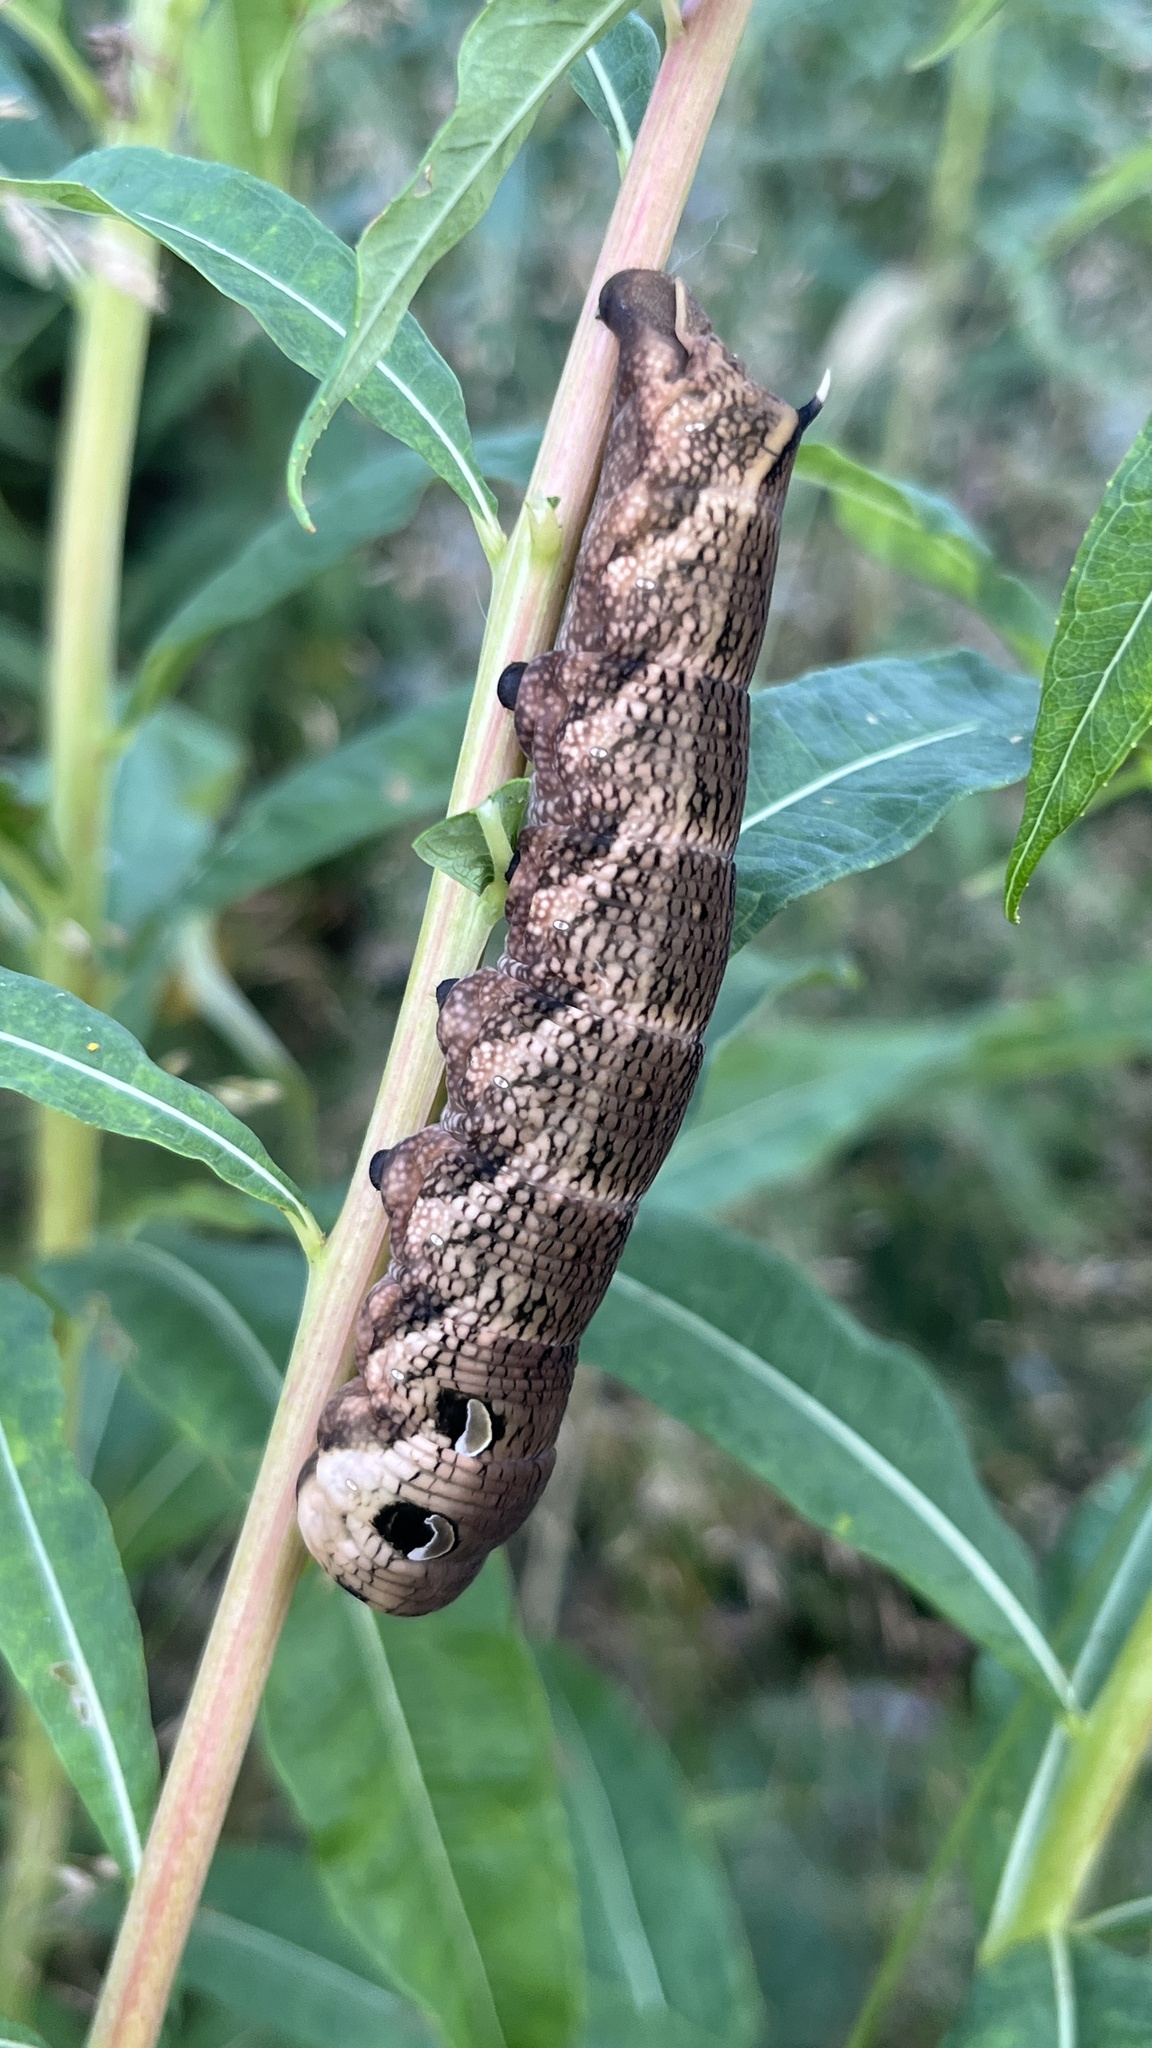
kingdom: Animalia
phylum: Arthropoda
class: Insecta
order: Lepidoptera
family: Sphingidae
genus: Deilephila
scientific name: Deilephila elpenor
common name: Elephant hawk-moth
